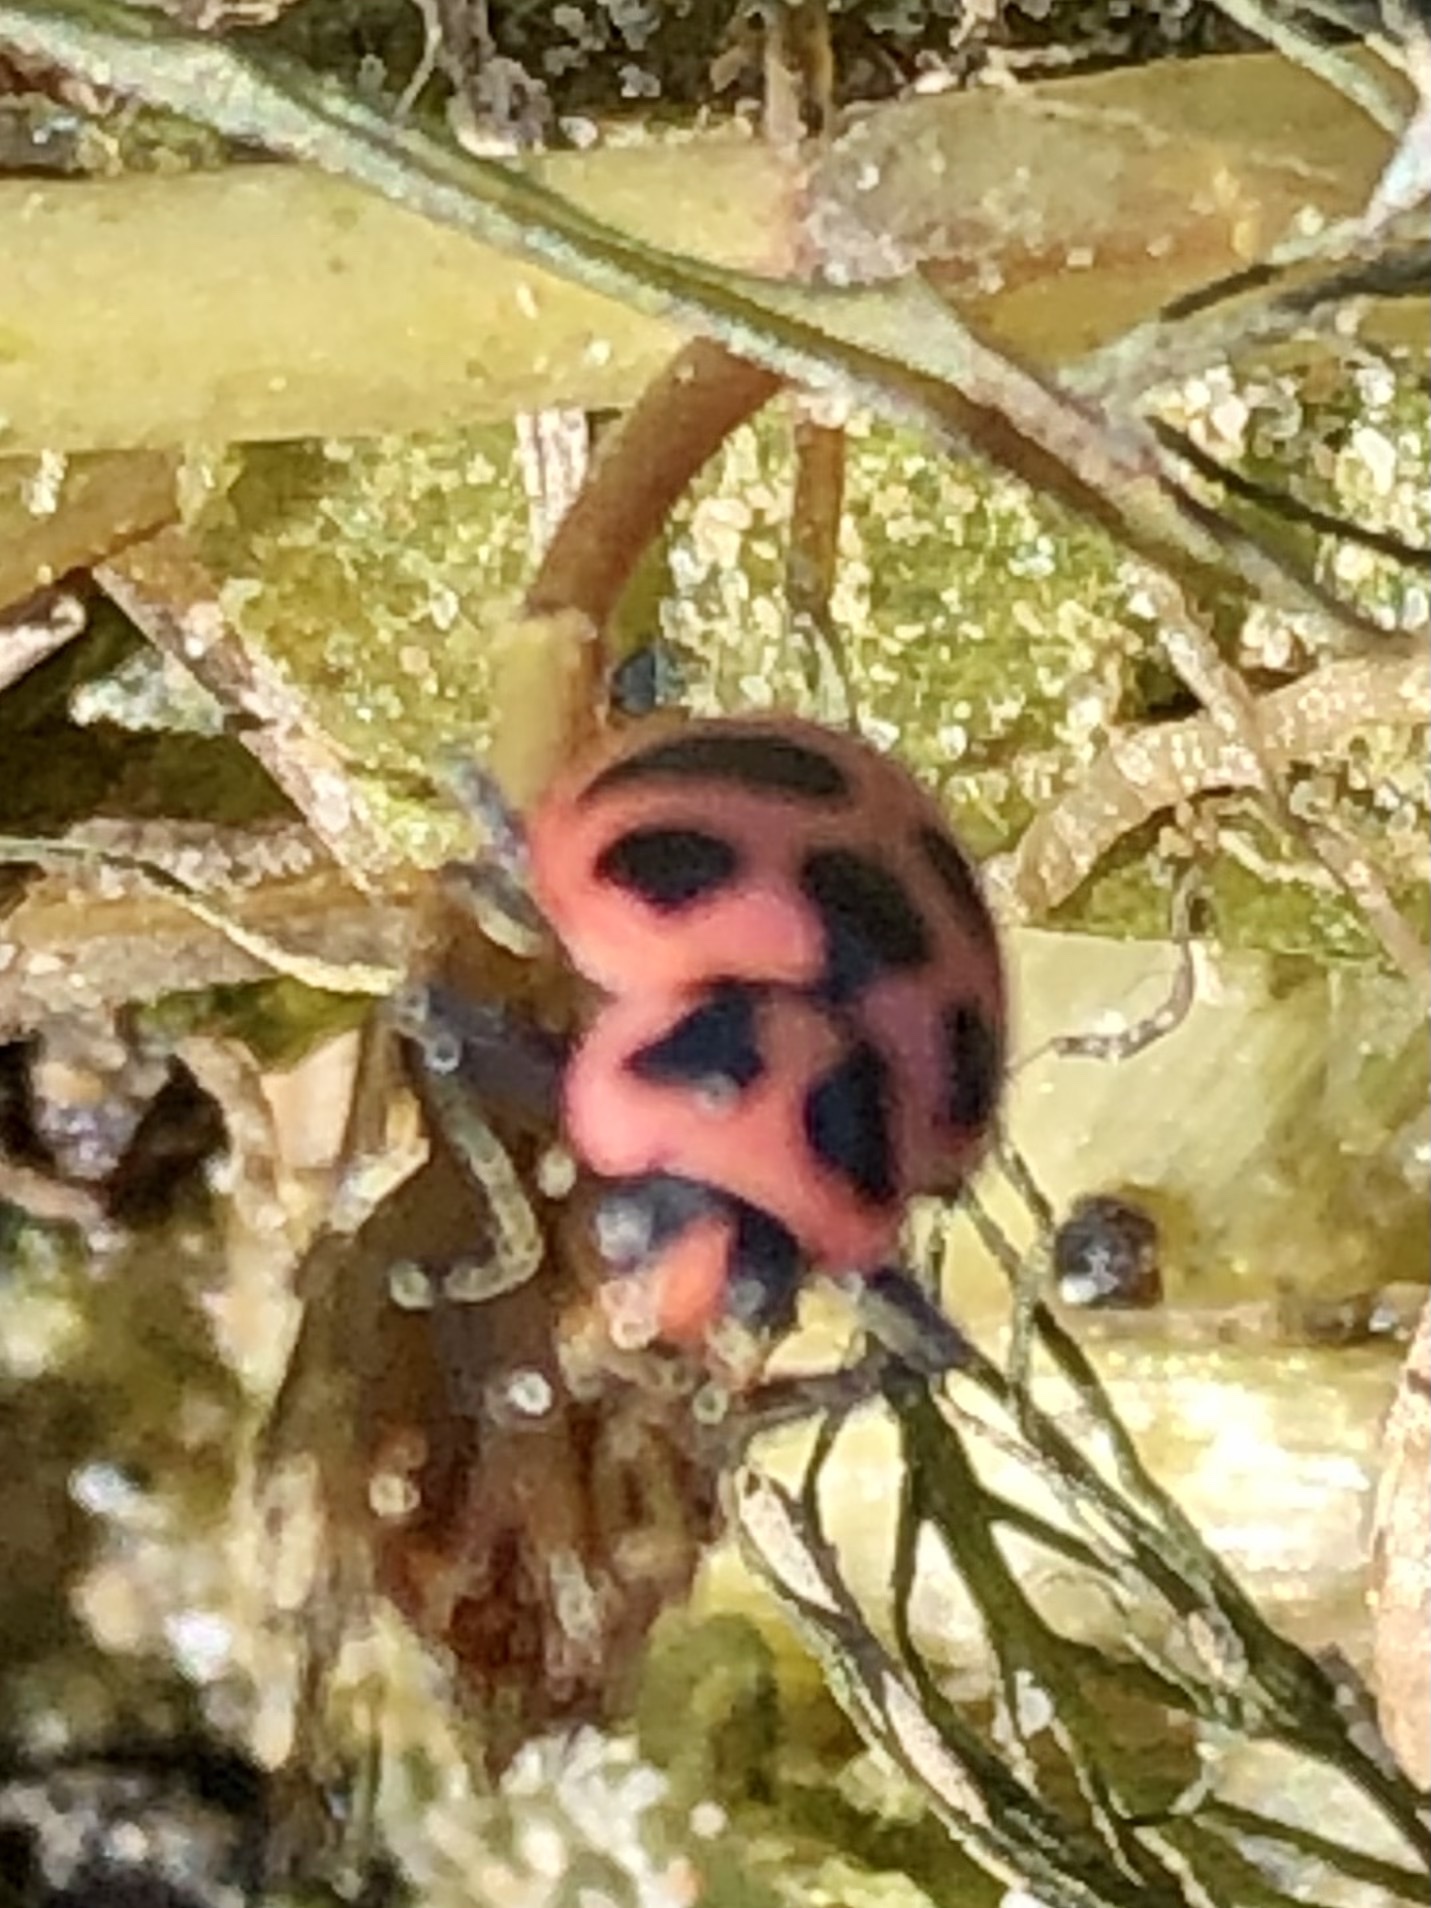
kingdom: Animalia
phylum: Arthropoda
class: Insecta
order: Coleoptera
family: Coccinellidae
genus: Coleomegilla
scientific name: Coleomegilla maculata
